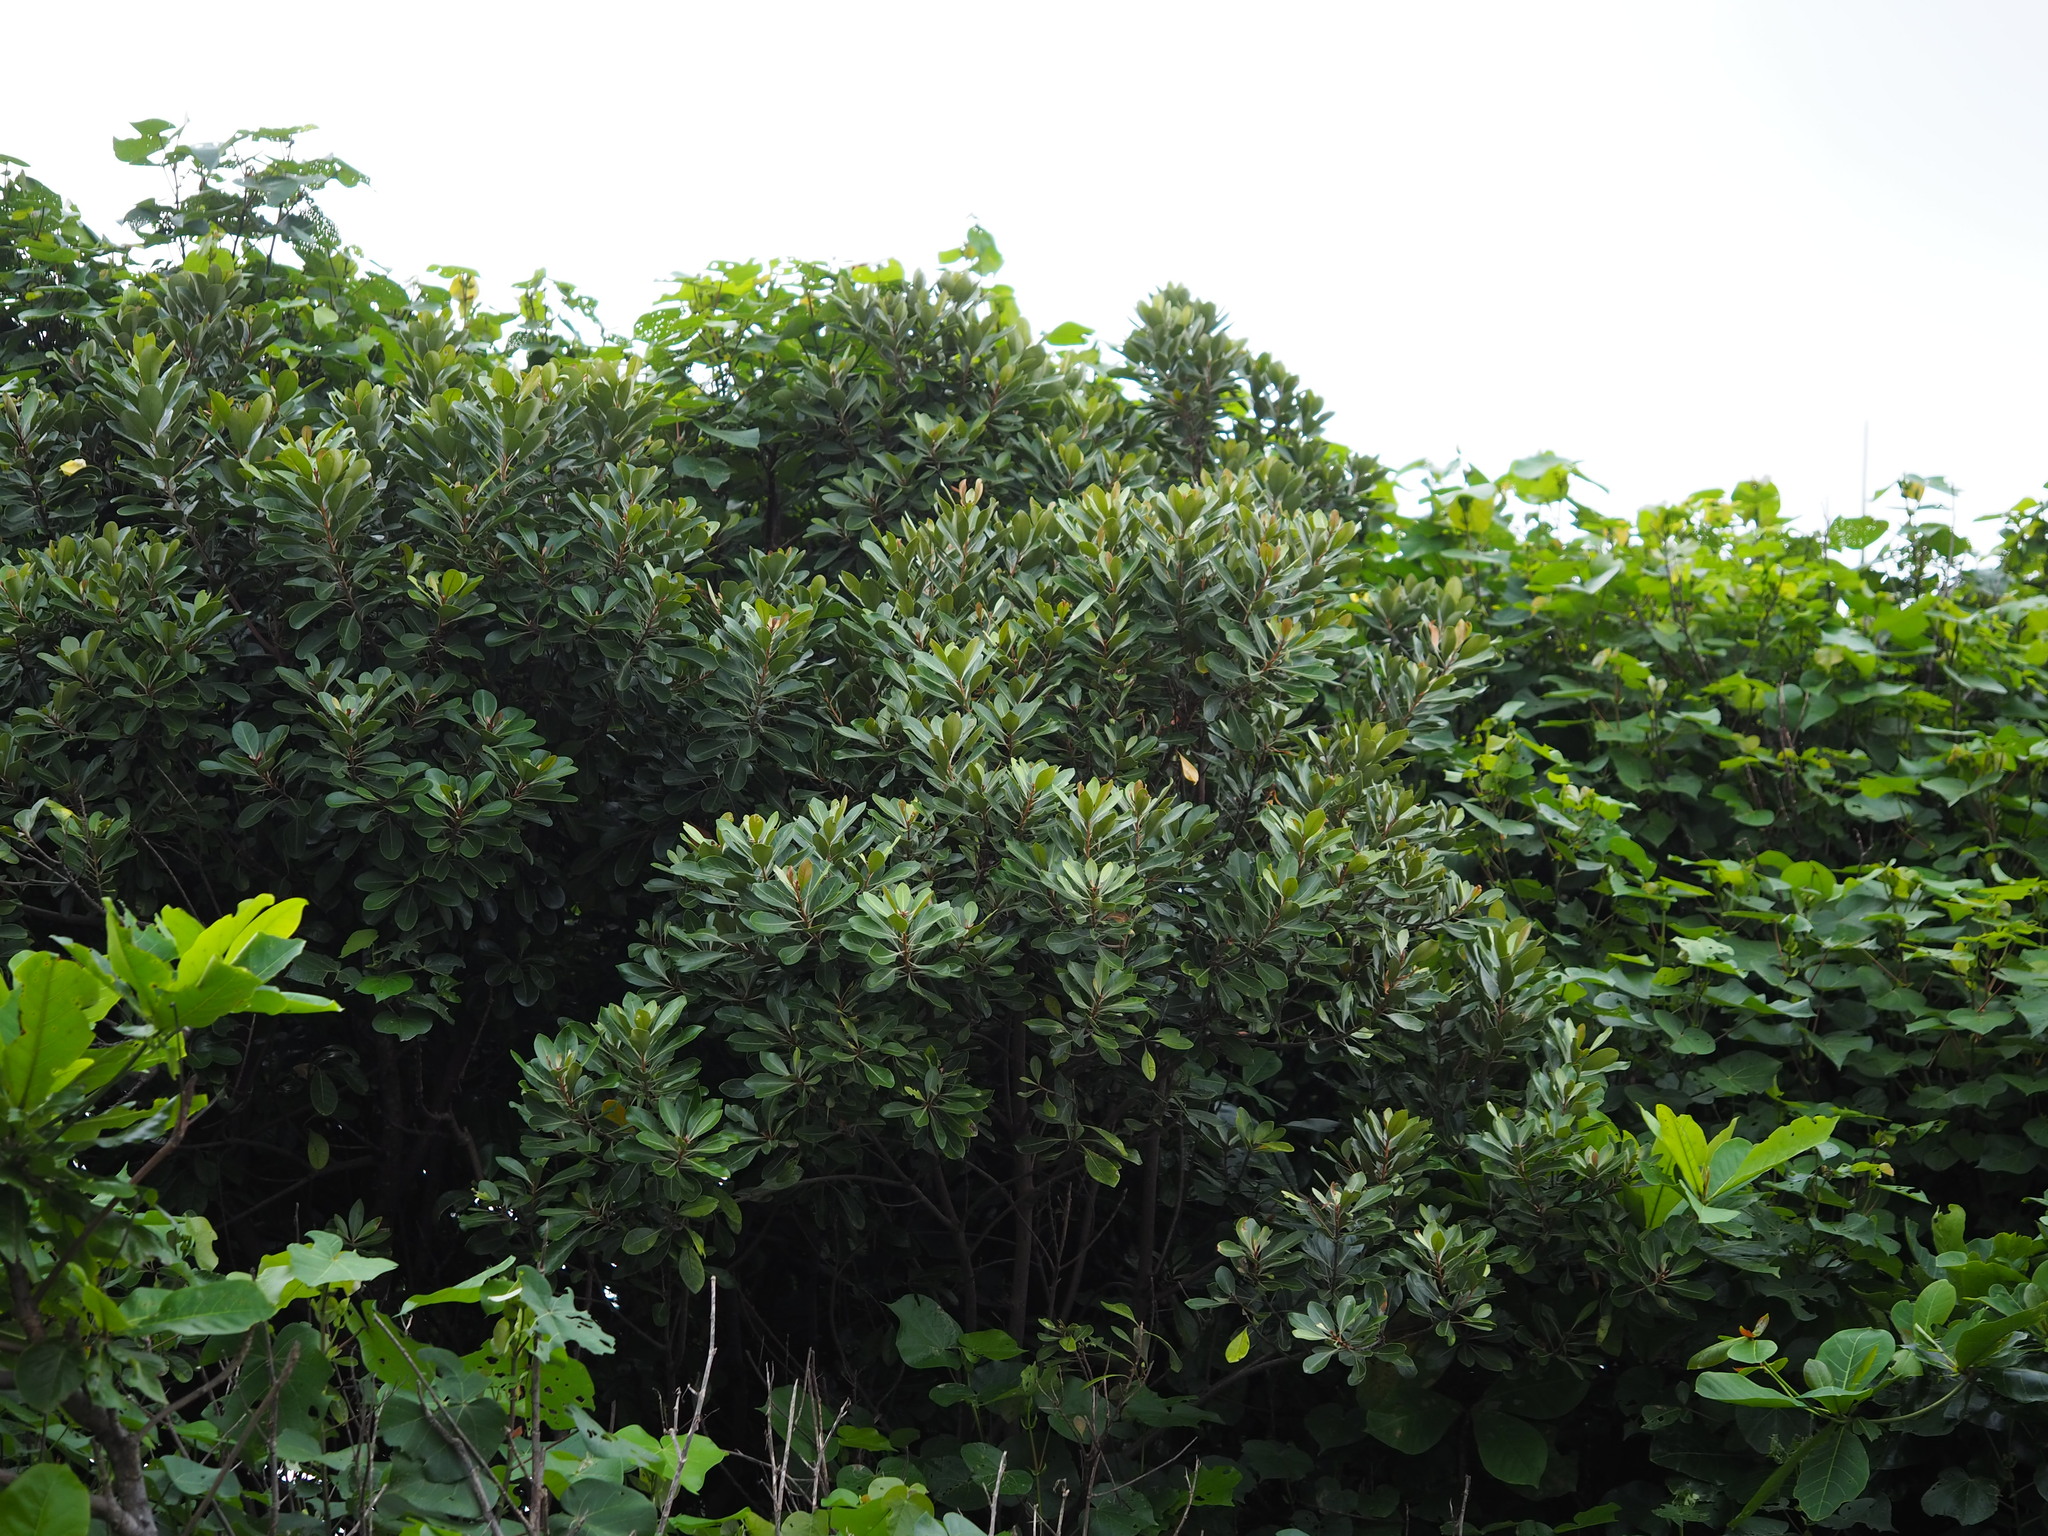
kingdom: Plantae
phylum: Tracheophyta
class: Magnoliopsida
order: Ericales
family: Sapotaceae
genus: Planchonella
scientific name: Planchonella obovata
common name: Black-ash
